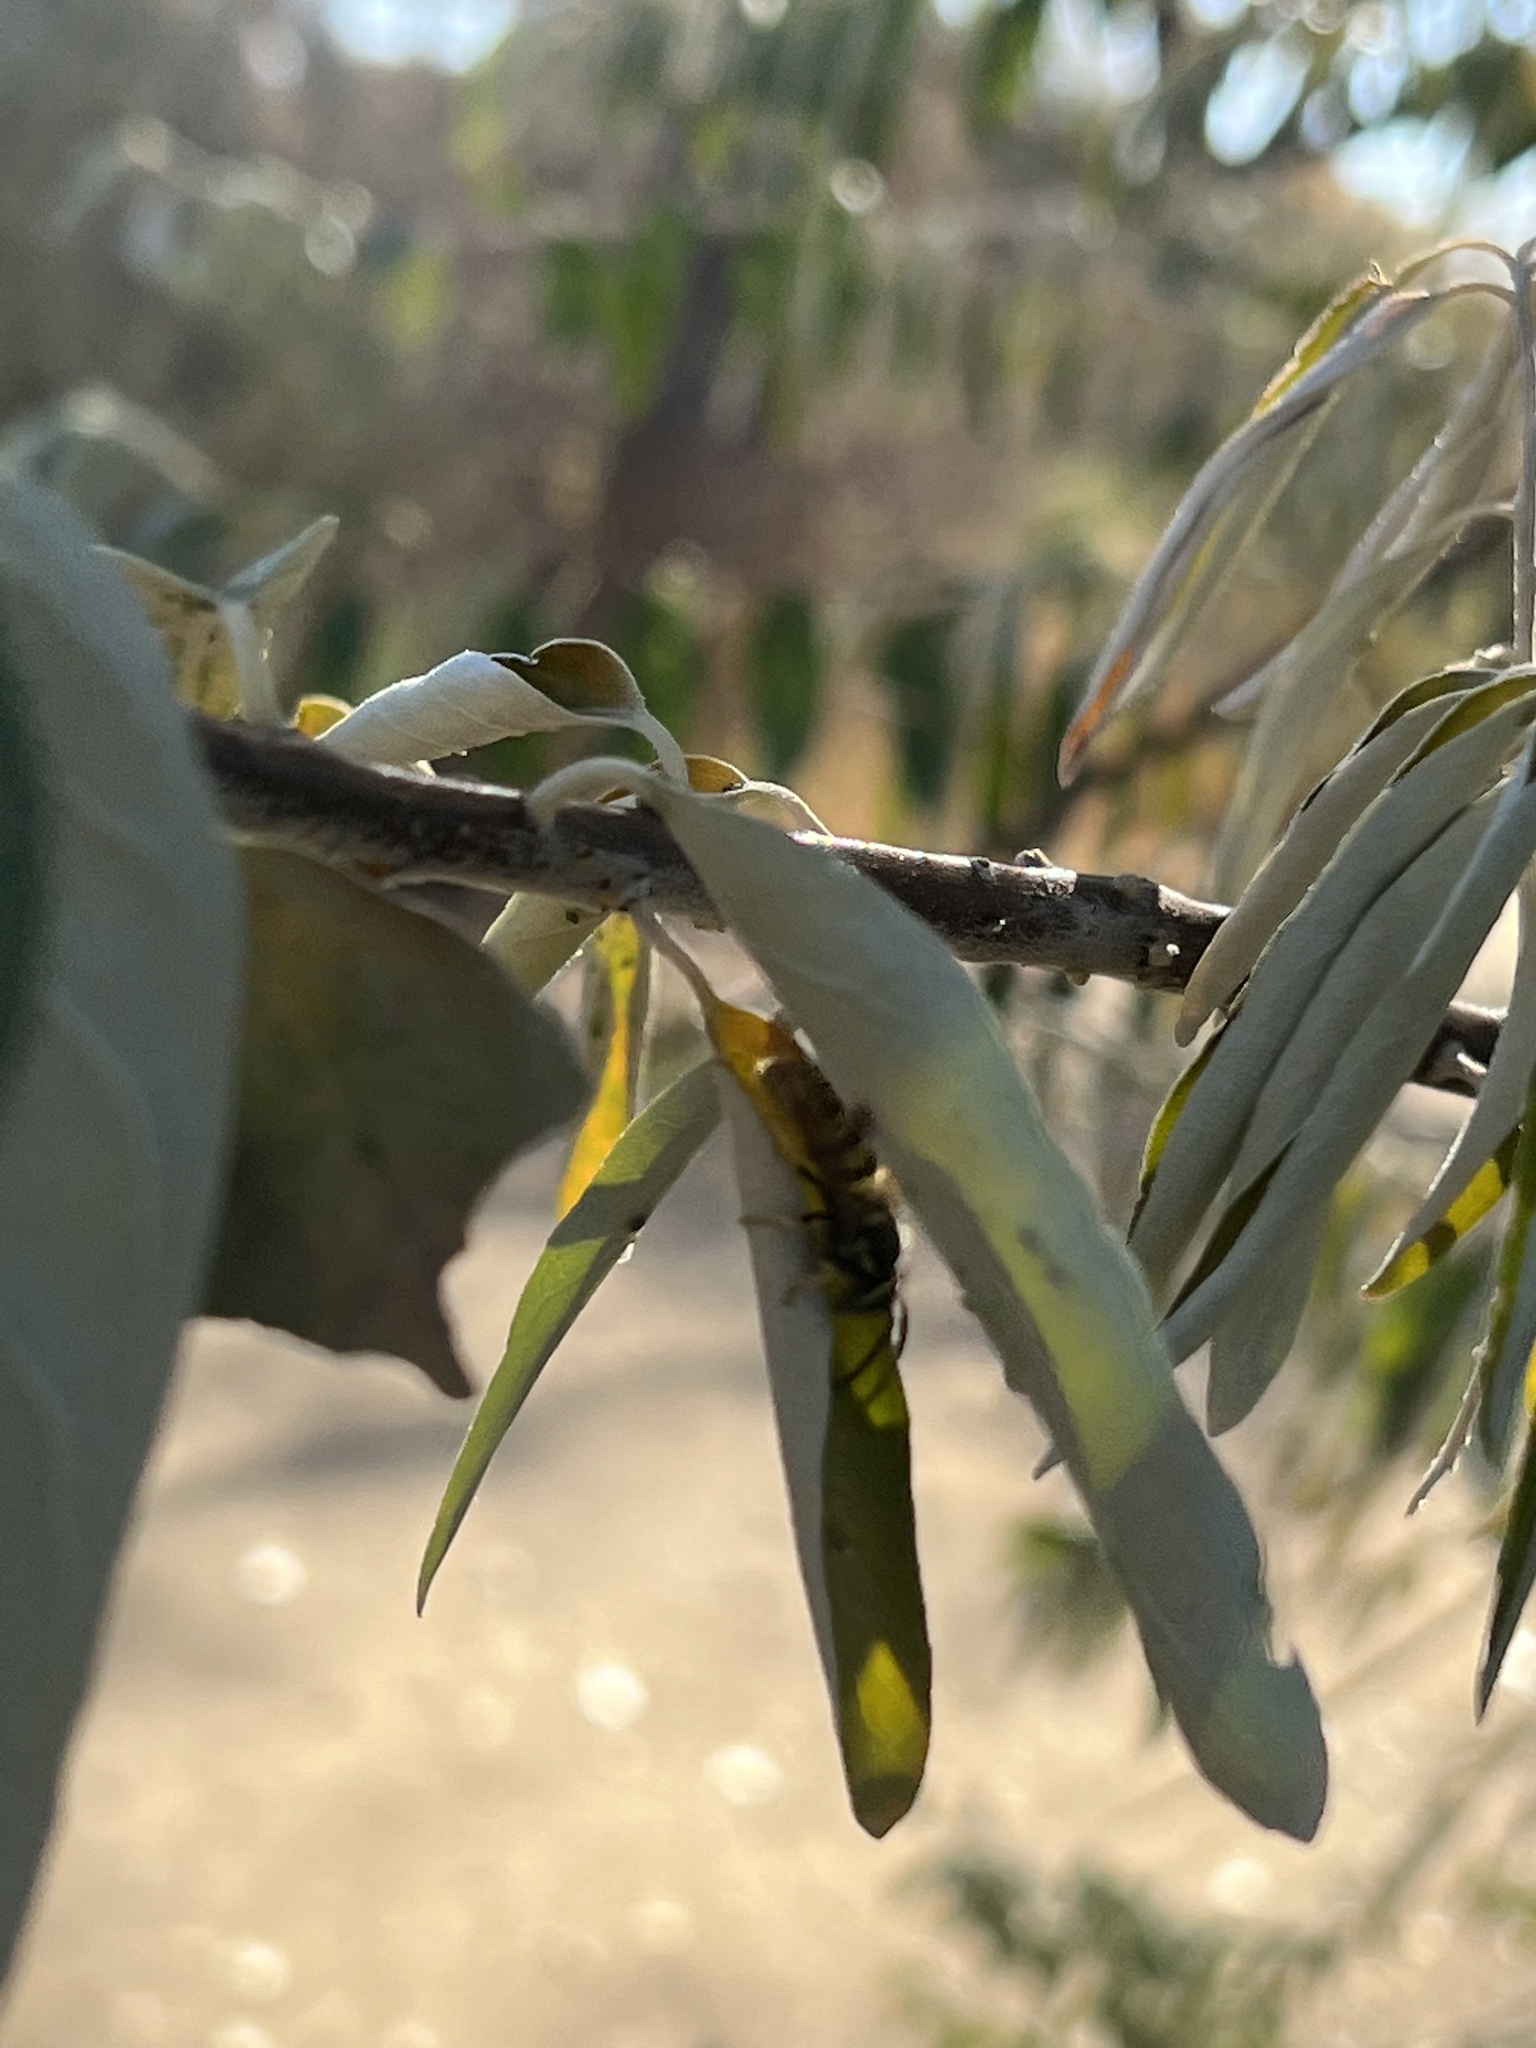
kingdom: Animalia
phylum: Arthropoda
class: Insecta
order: Hymenoptera
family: Vespidae
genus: Vespula
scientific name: Vespula germanica
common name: German wasp
